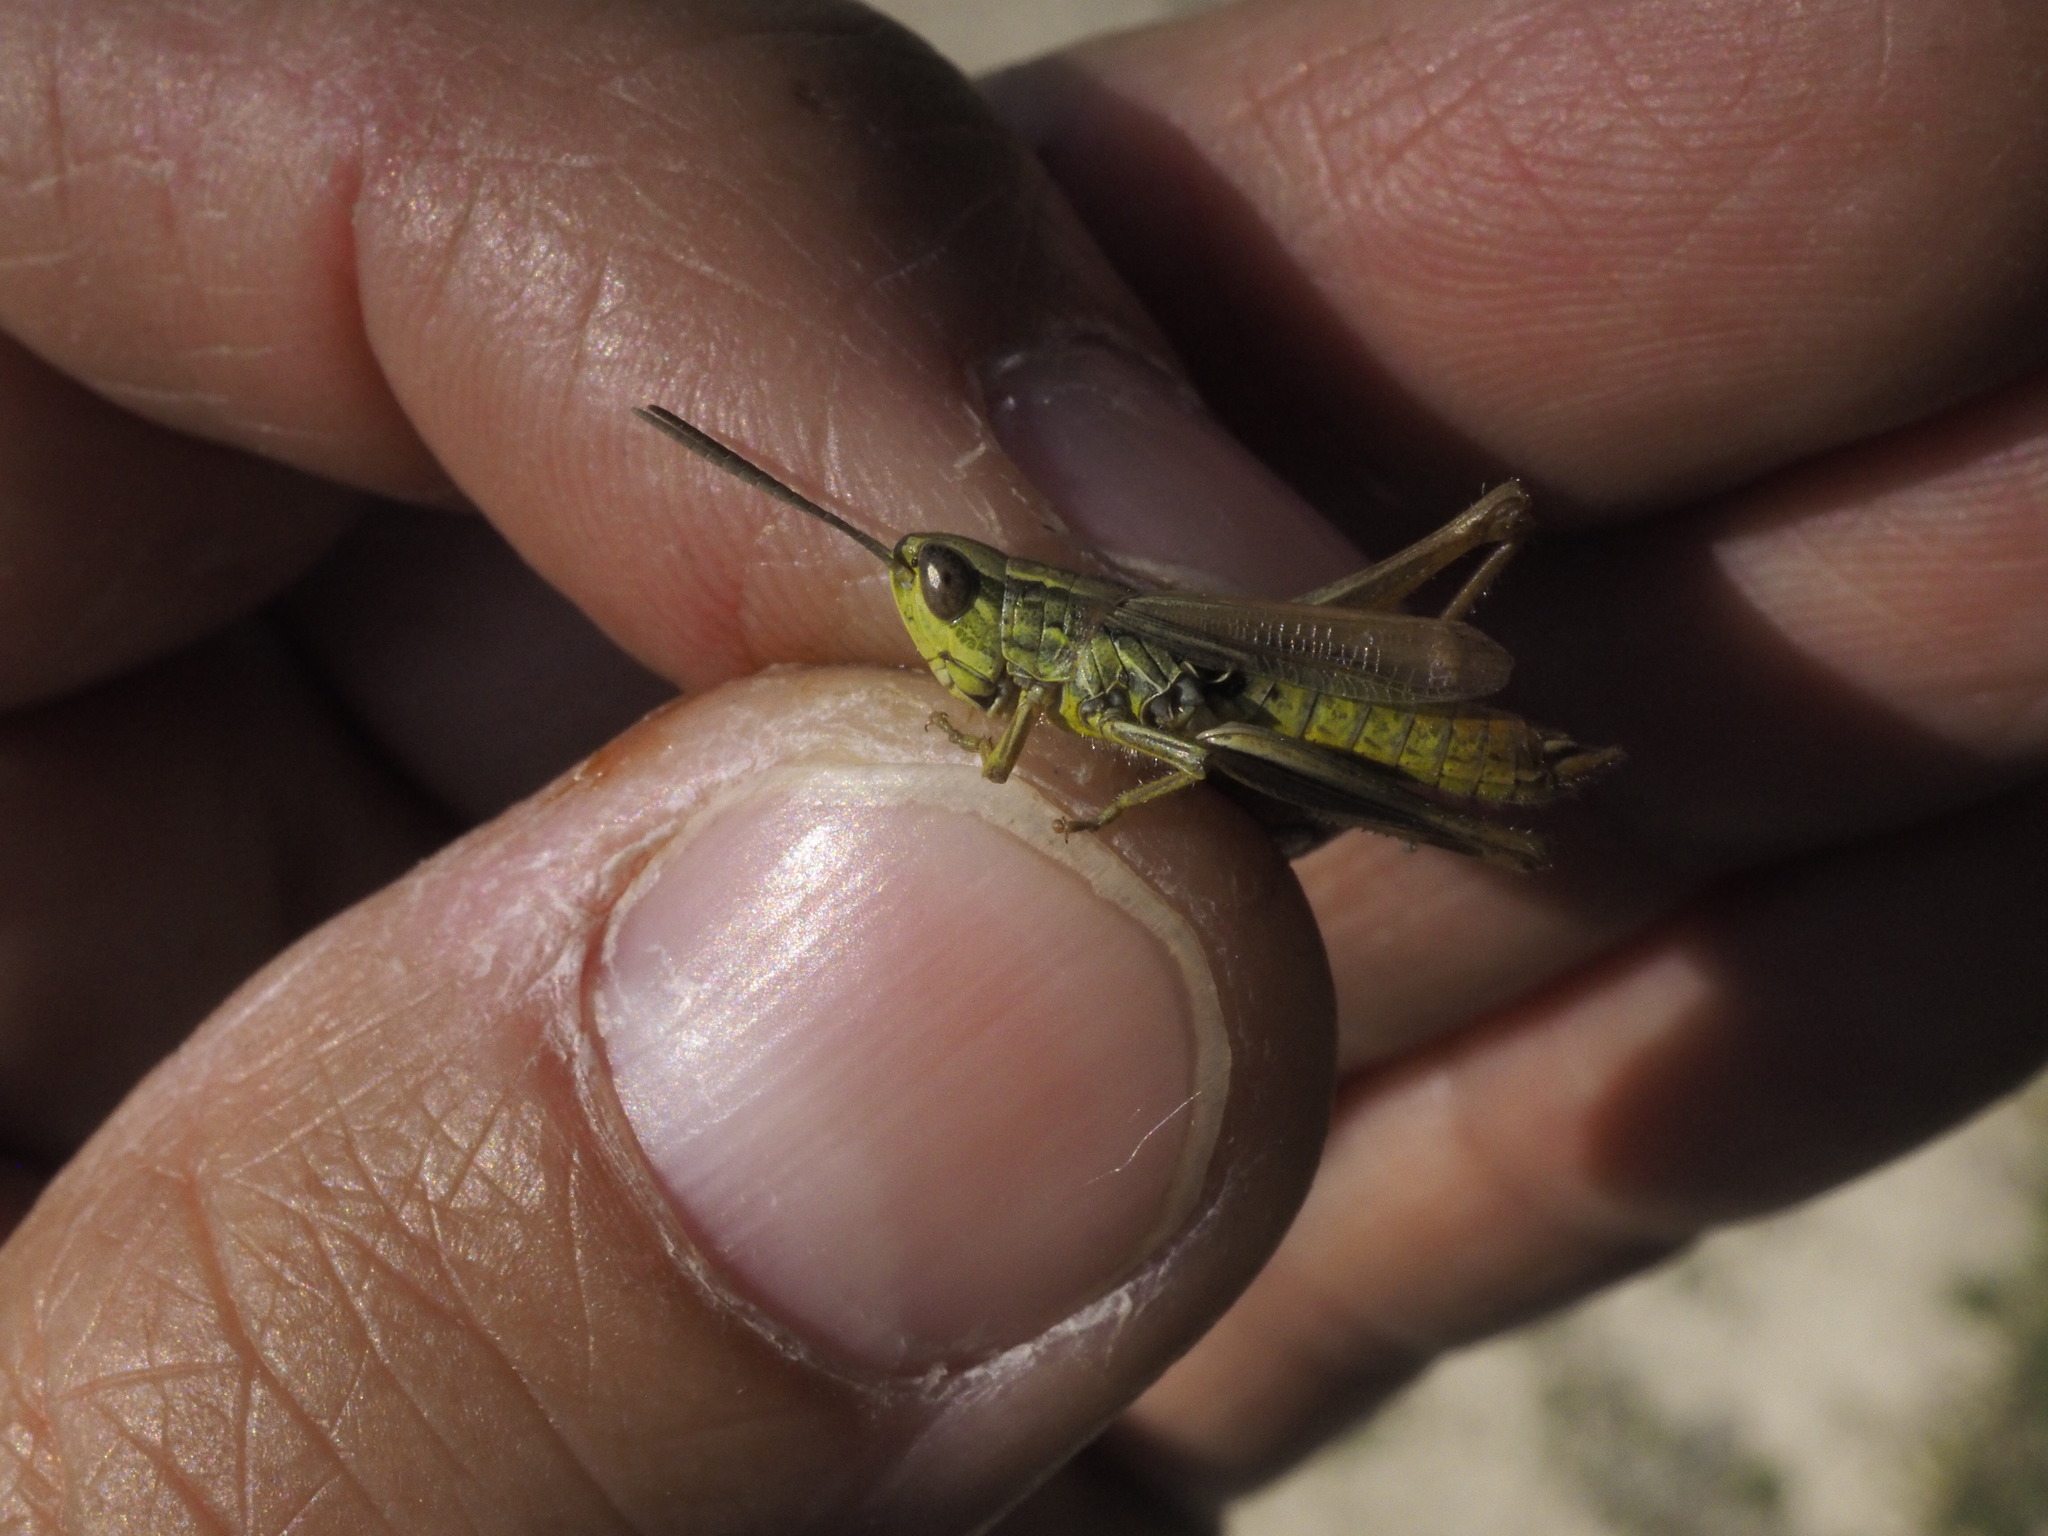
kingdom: Animalia
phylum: Arthropoda
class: Insecta
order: Orthoptera
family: Acrididae
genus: Euchorthippus
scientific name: Euchorthippus declivus
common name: Common straw grasshopper
